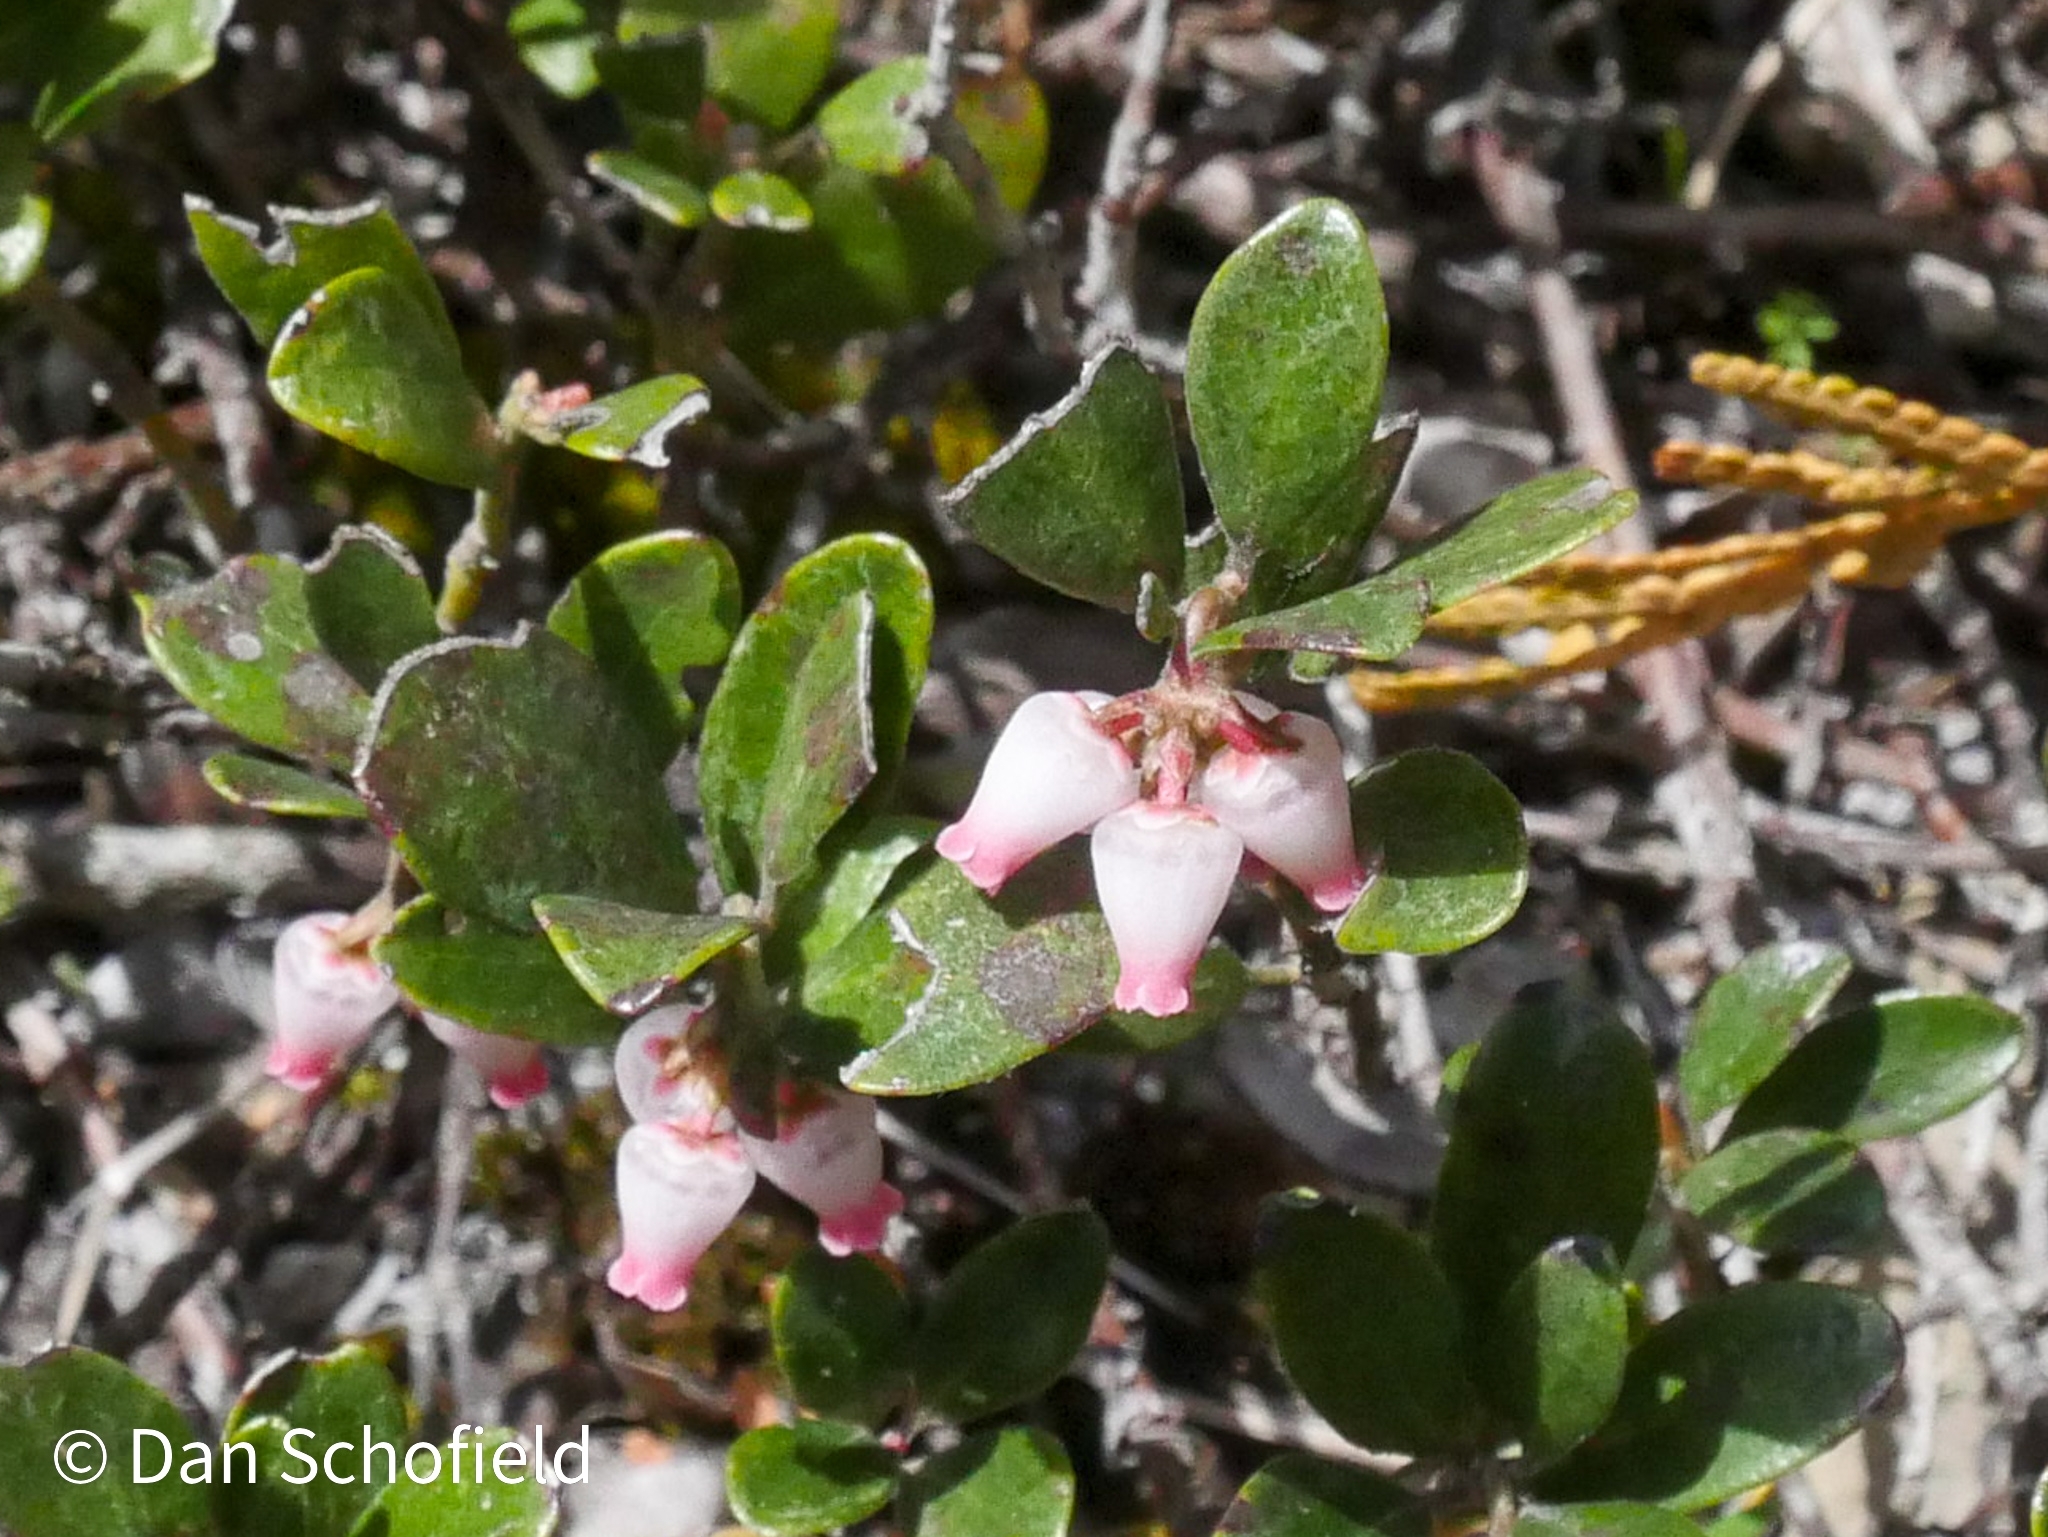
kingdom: Plantae
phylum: Tracheophyta
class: Magnoliopsida
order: Ericales
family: Ericaceae
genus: Arctostaphylos
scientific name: Arctostaphylos uva-ursi
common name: Bearberry
